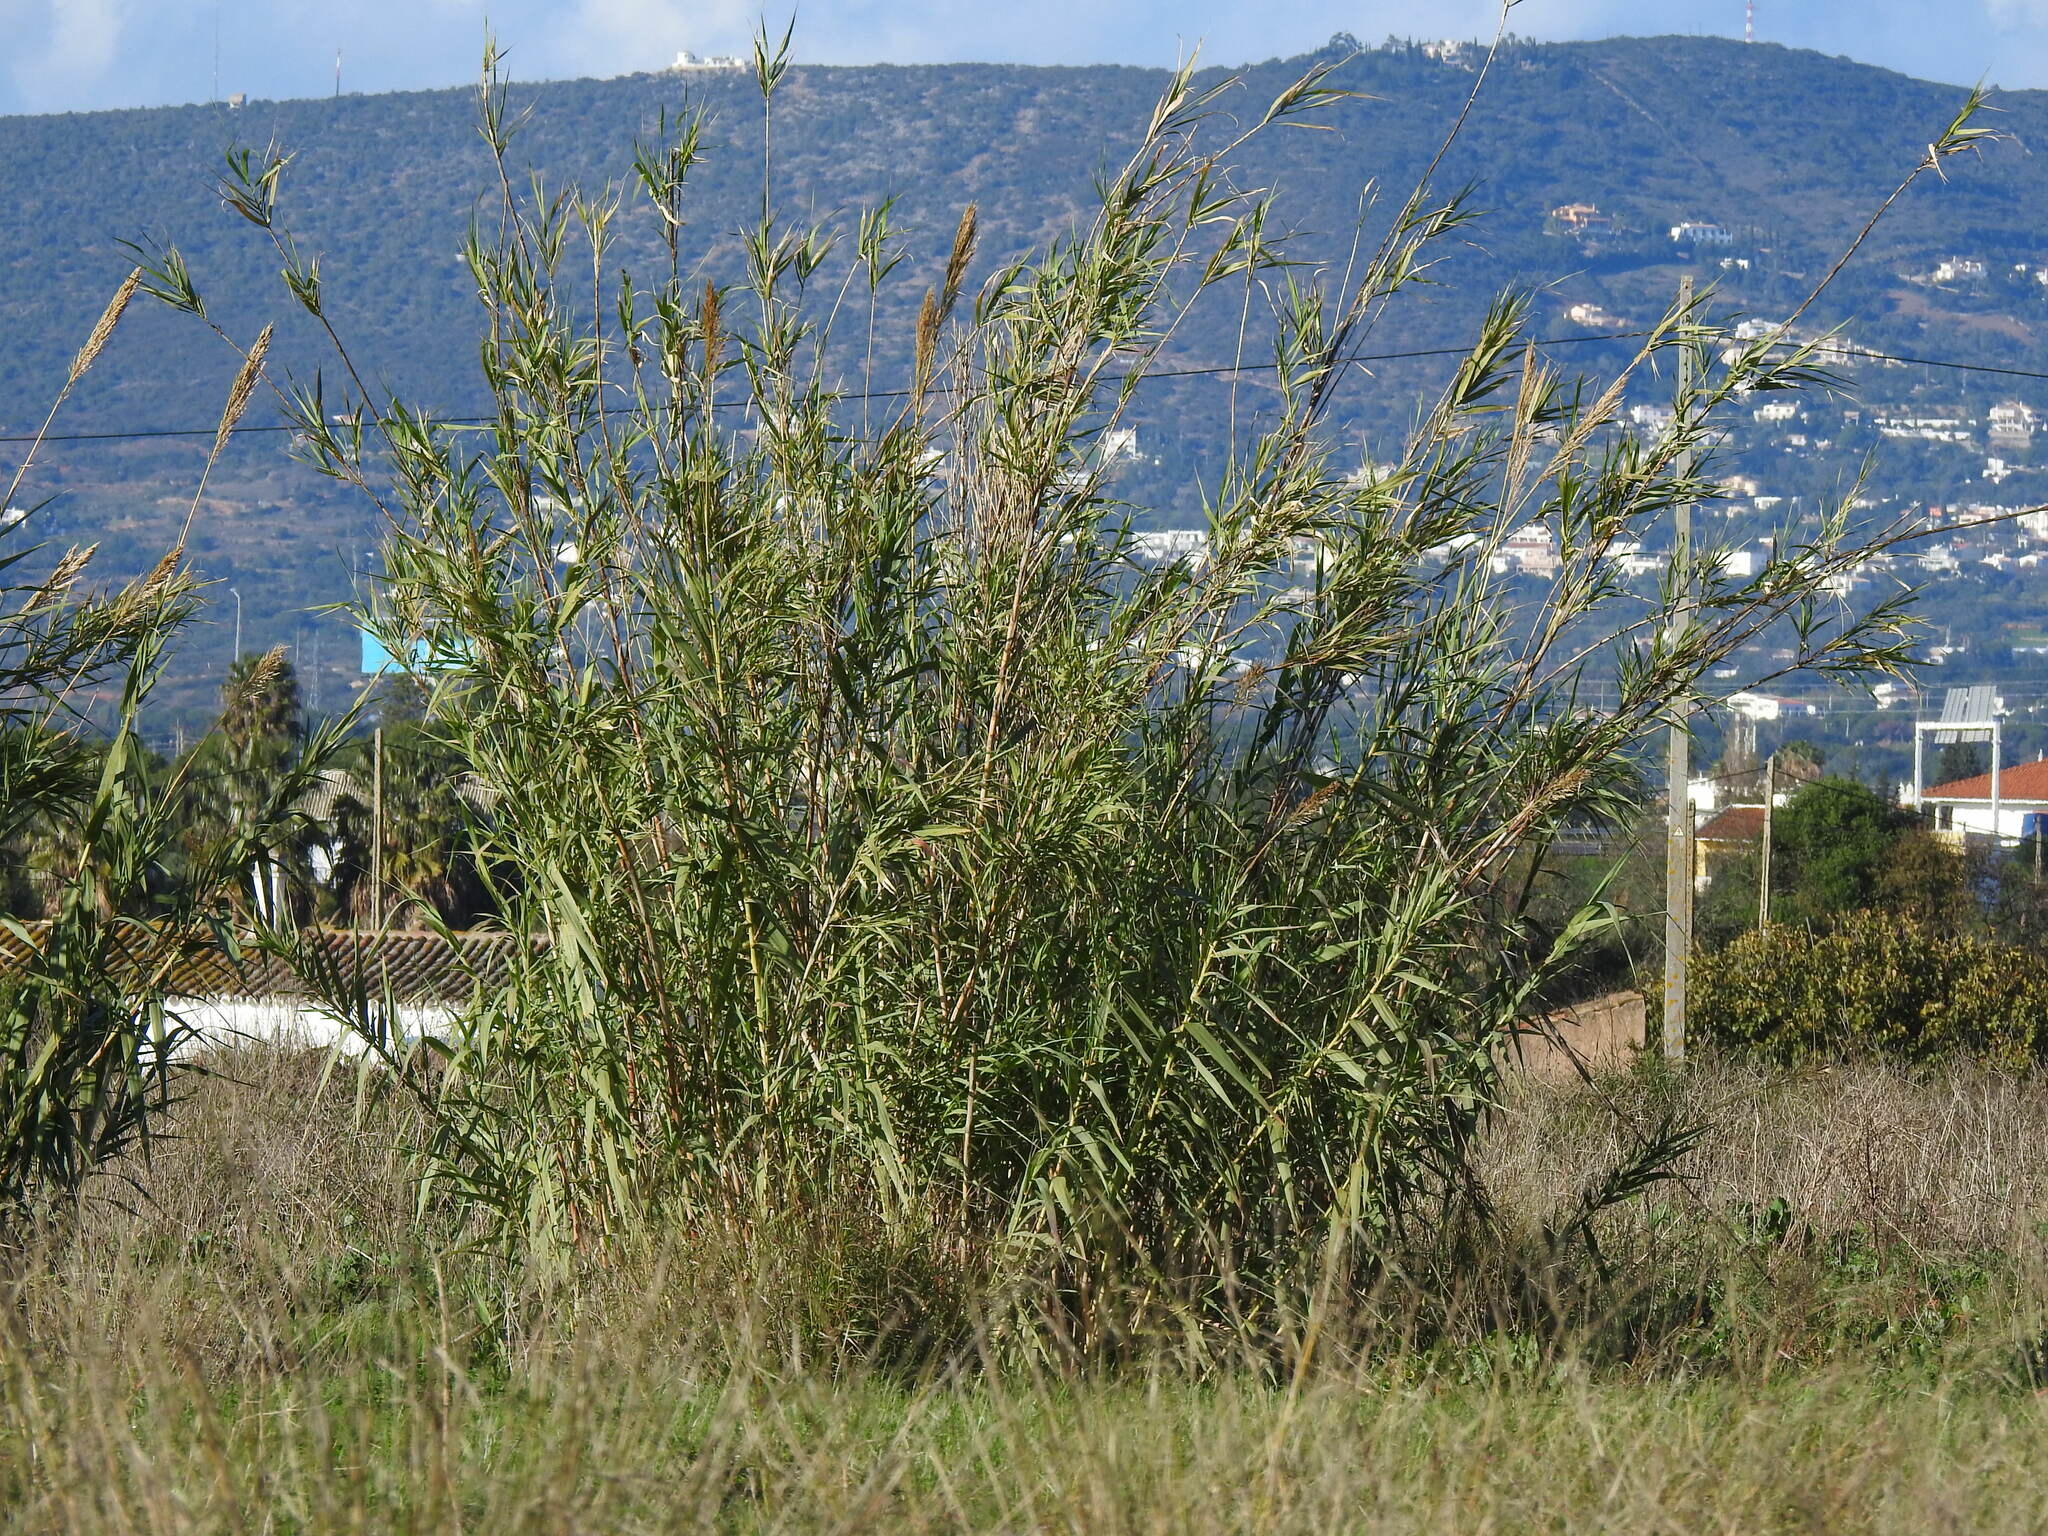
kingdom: Plantae
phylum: Tracheophyta
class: Liliopsida
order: Poales
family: Poaceae
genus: Arundo
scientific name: Arundo donax
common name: Giant reed
